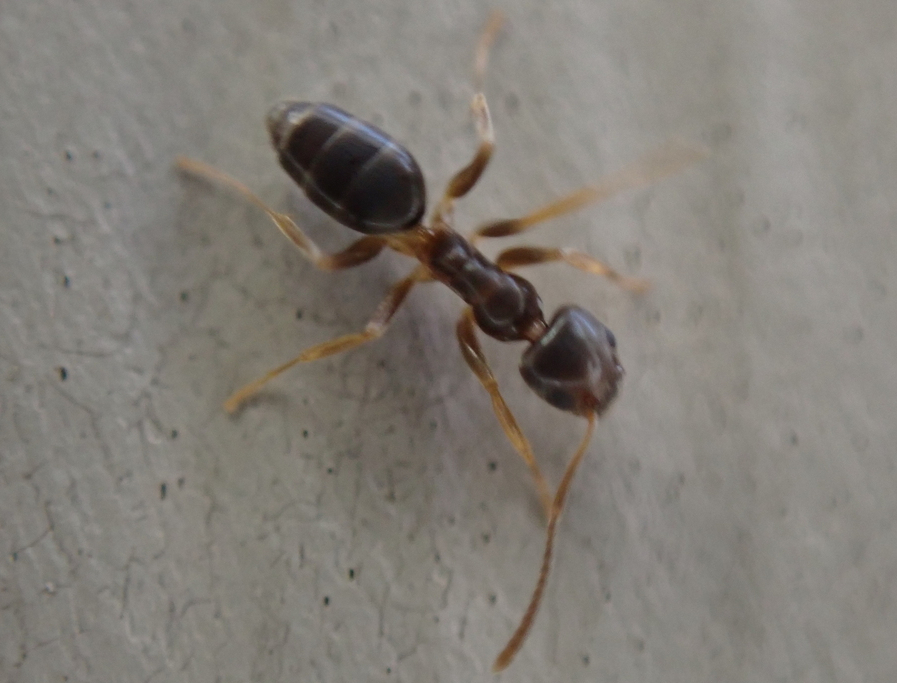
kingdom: Animalia
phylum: Arthropoda
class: Insecta
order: Hymenoptera
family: Formicidae
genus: Tapinoma
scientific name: Tapinoma sessile
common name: Odorous house ant
